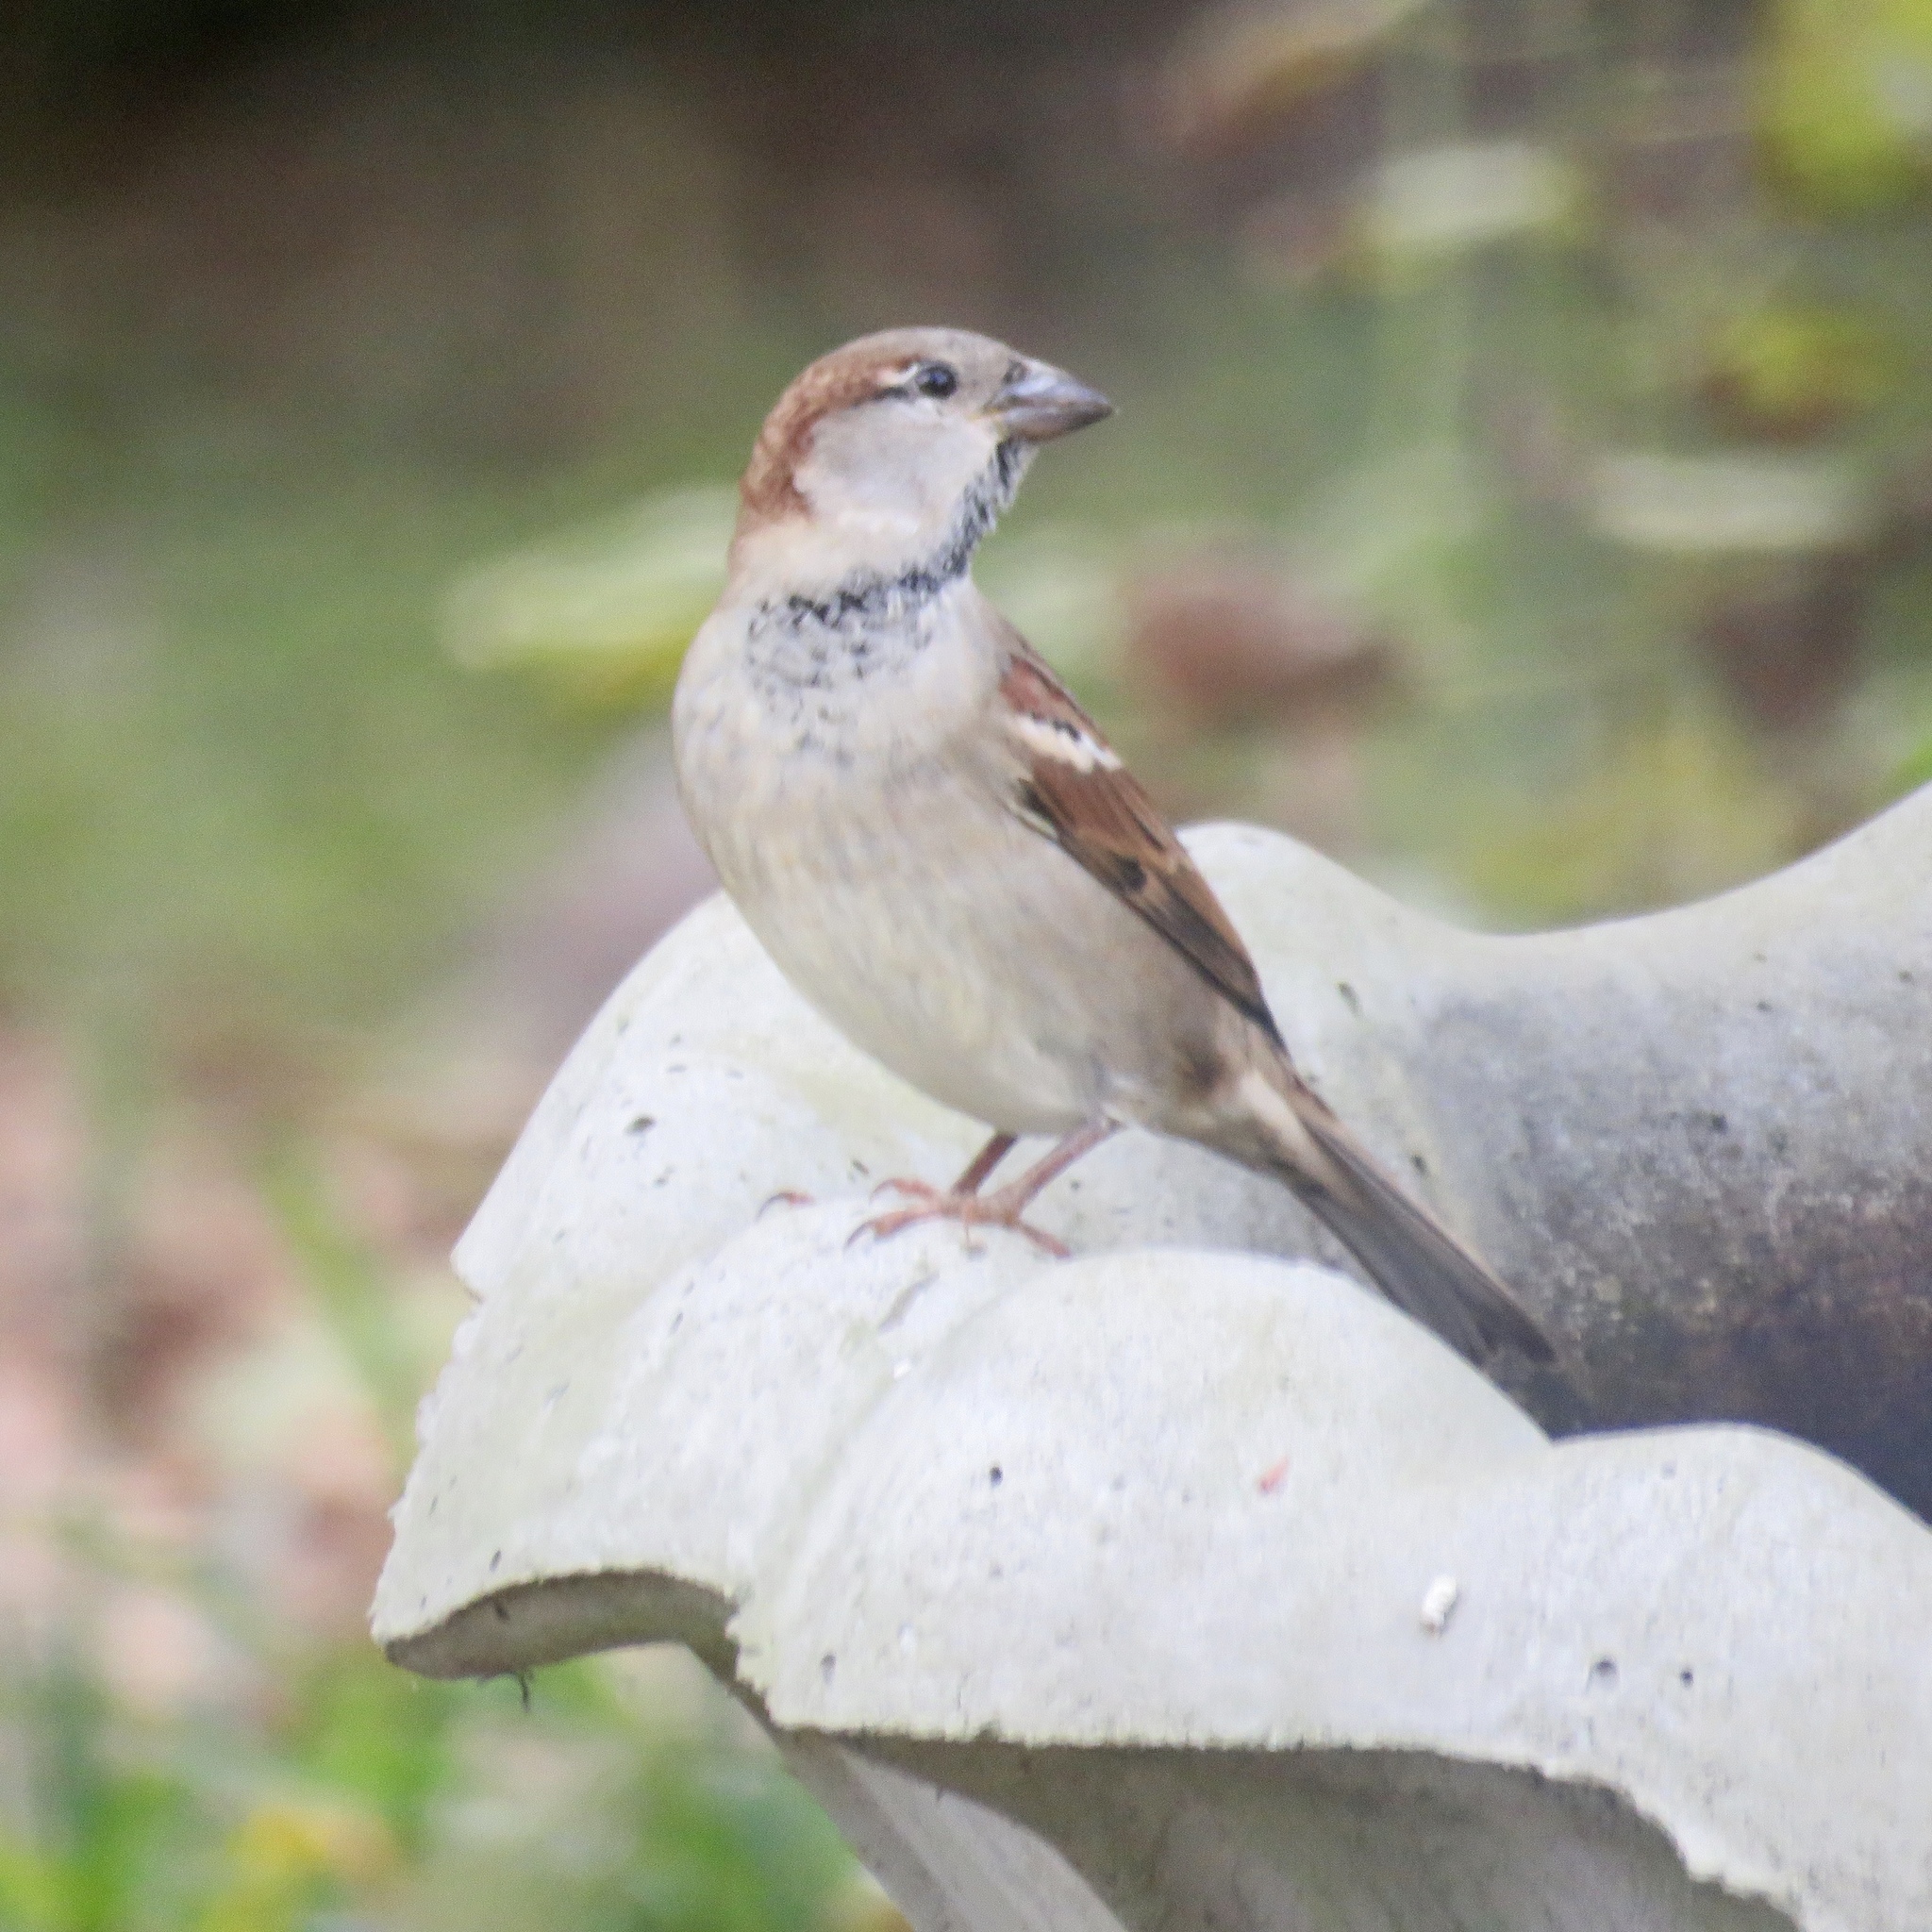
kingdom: Animalia
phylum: Chordata
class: Aves
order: Passeriformes
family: Passeridae
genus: Passer
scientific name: Passer domesticus
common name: House sparrow
